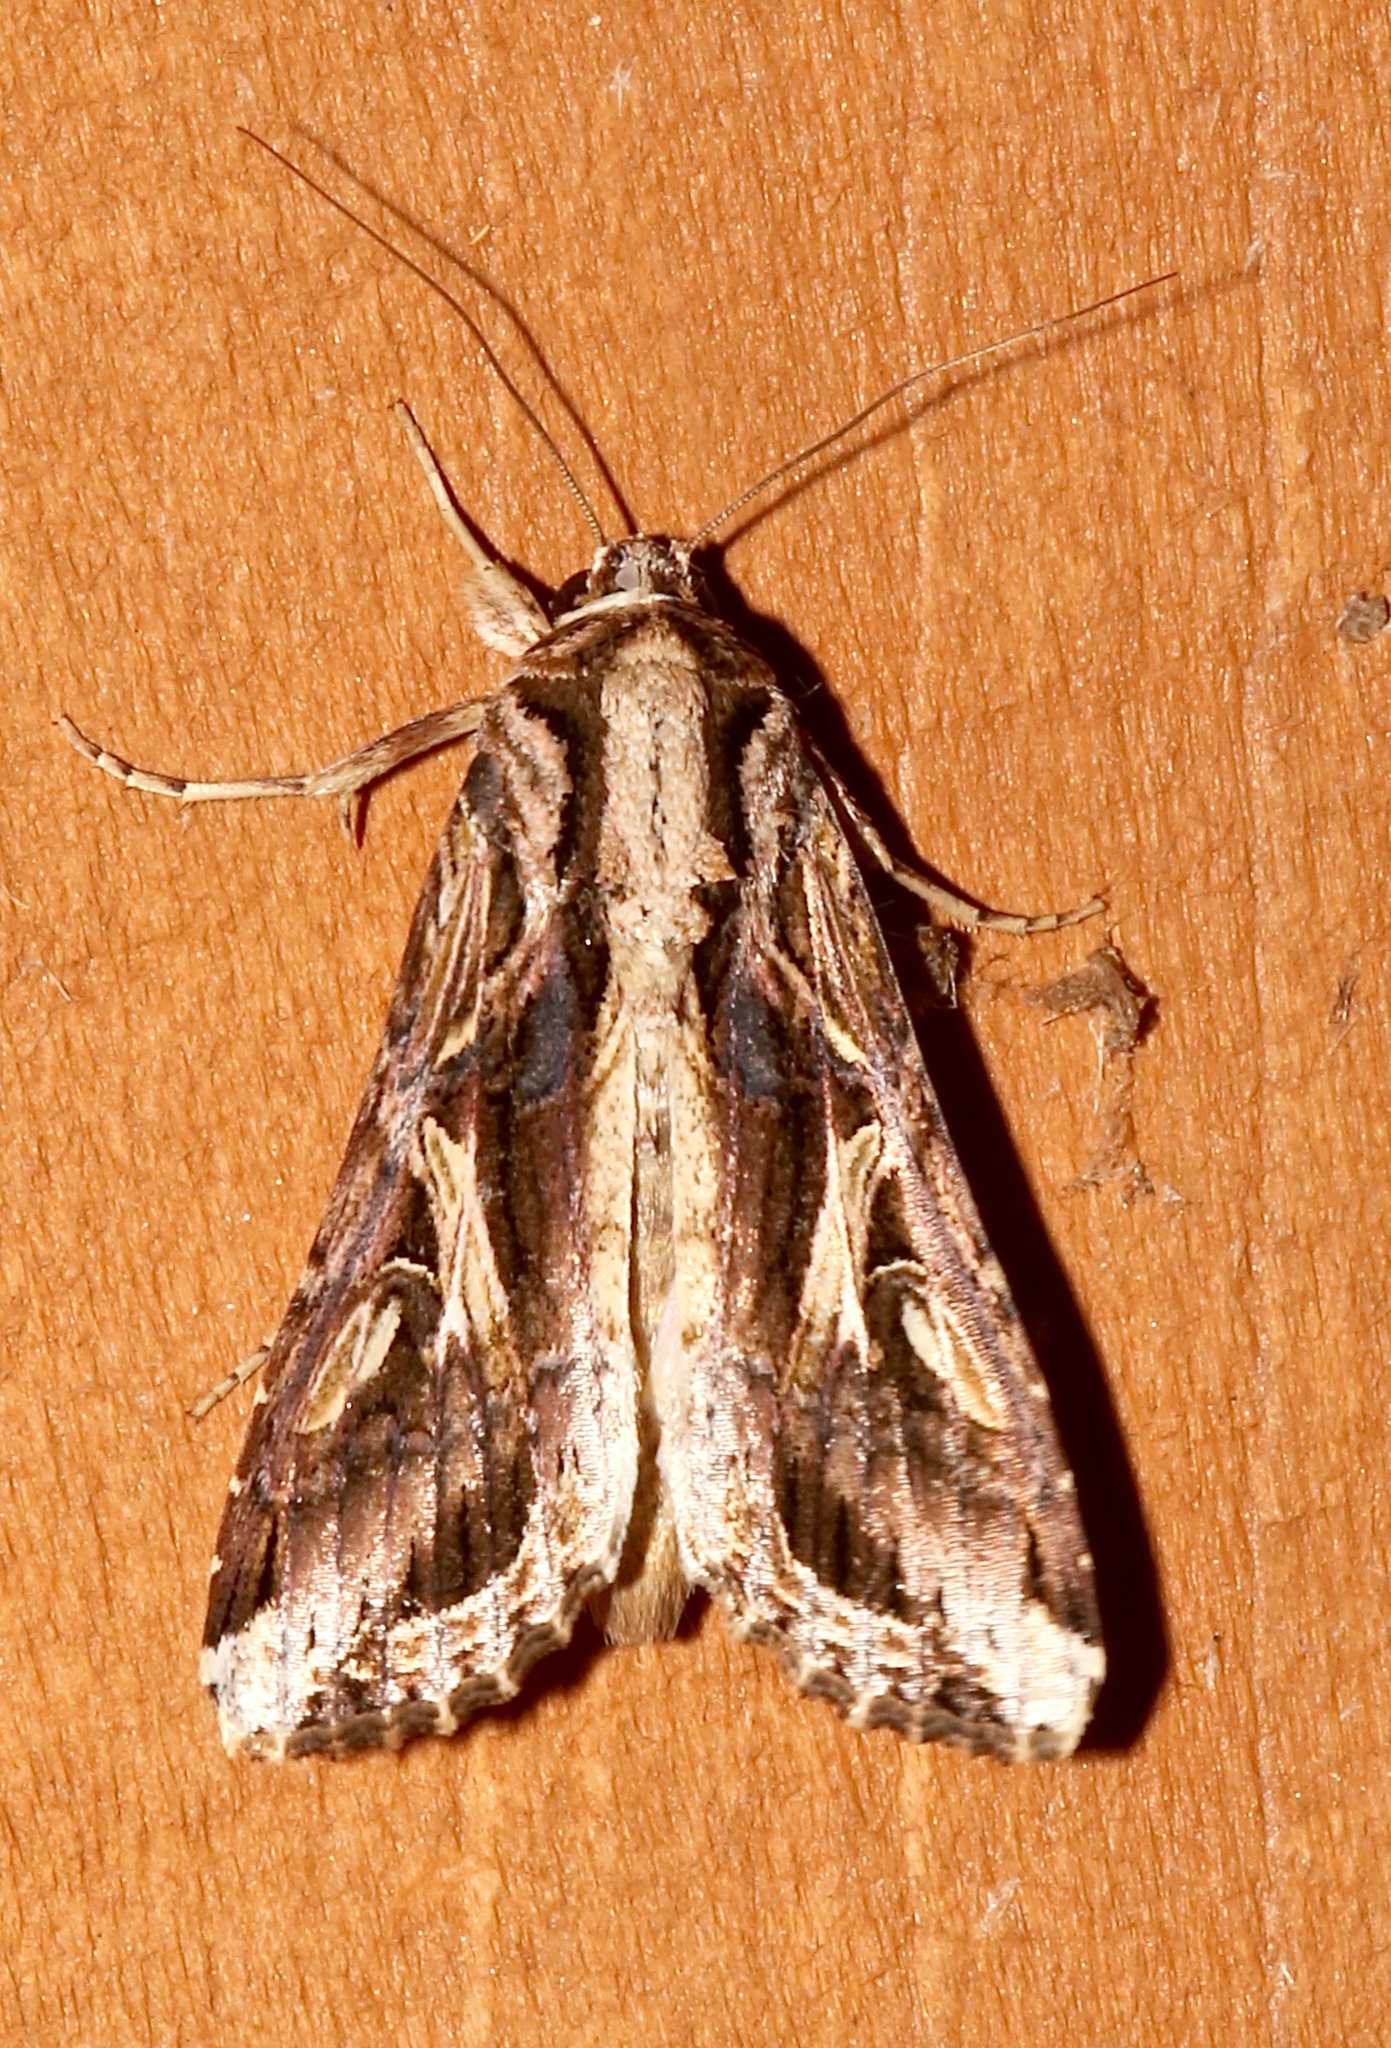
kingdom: Animalia
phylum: Arthropoda
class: Insecta
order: Lepidoptera
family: Noctuidae
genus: Spodoptera
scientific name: Spodoptera dolichos
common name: Sweetpotato armyworm
